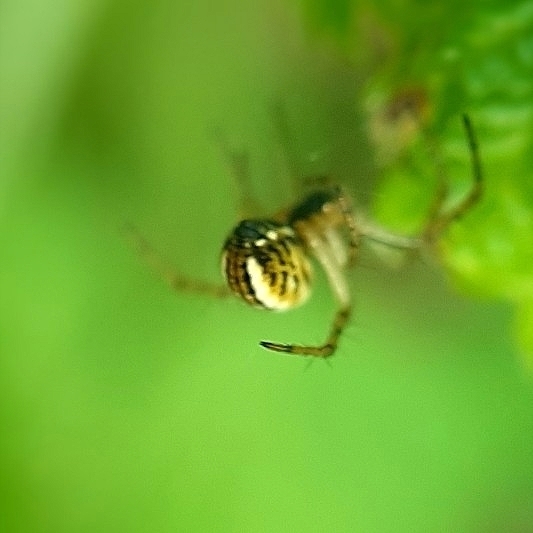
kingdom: Animalia
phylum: Arthropoda
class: Arachnida
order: Araneae
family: Araneidae
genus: Mangora
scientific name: Mangora acalypha
